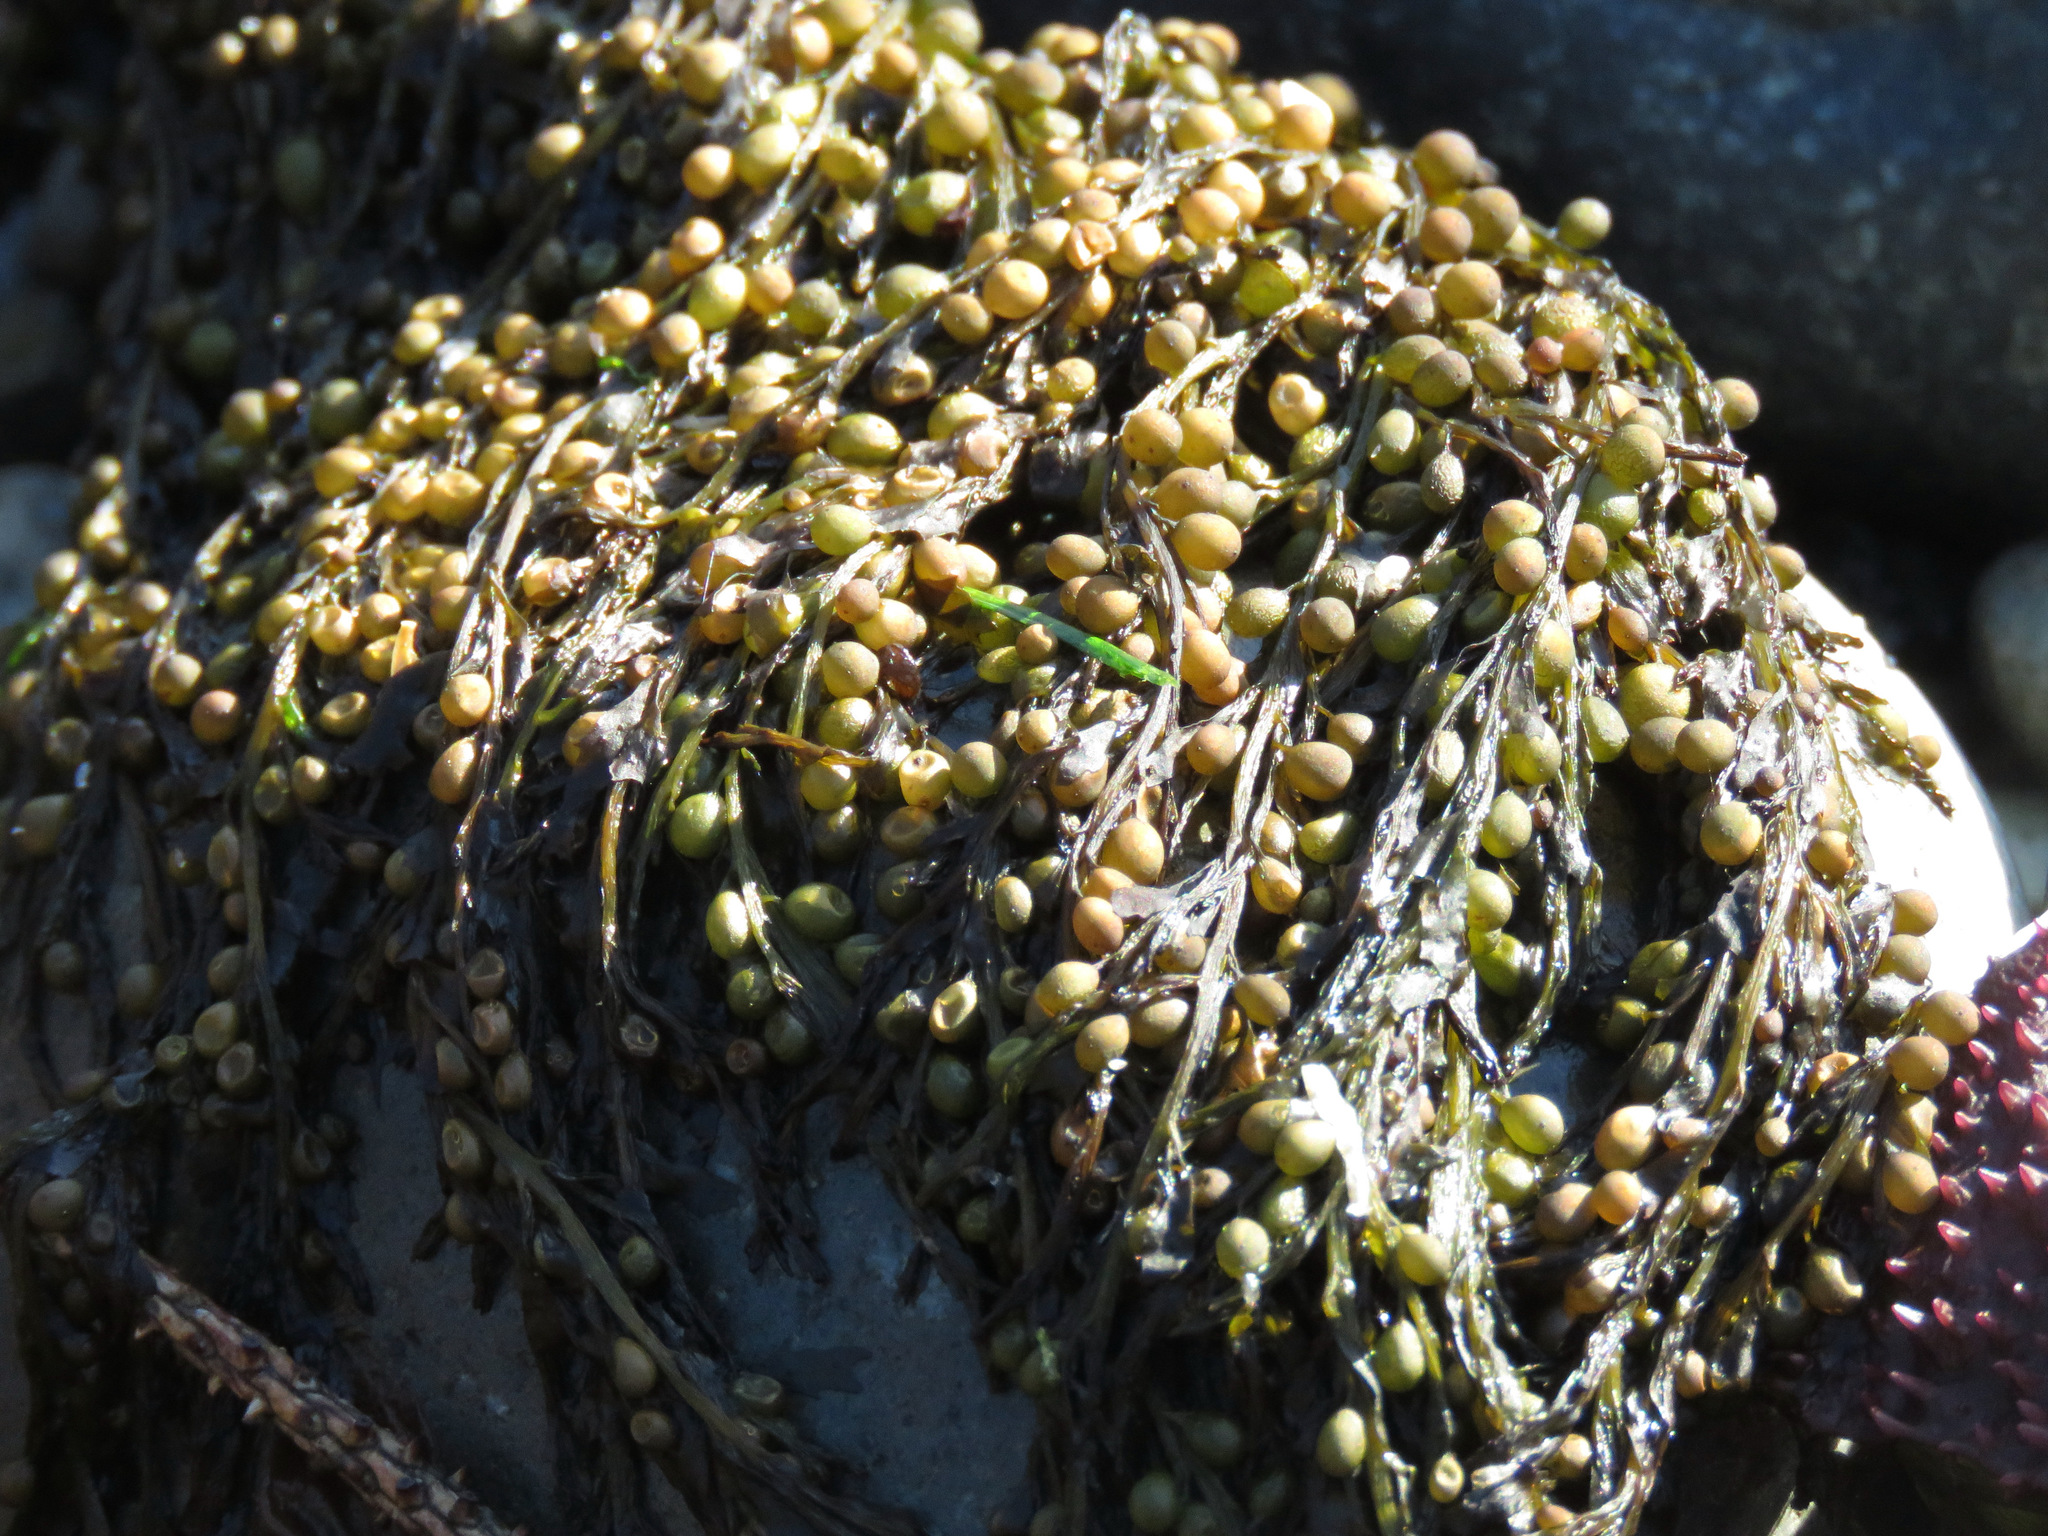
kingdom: Chromista
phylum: Ochrophyta
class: Phaeophyceae
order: Fucales
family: Sargassaceae
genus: Sargassum
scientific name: Sargassum muticum
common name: Japweed
